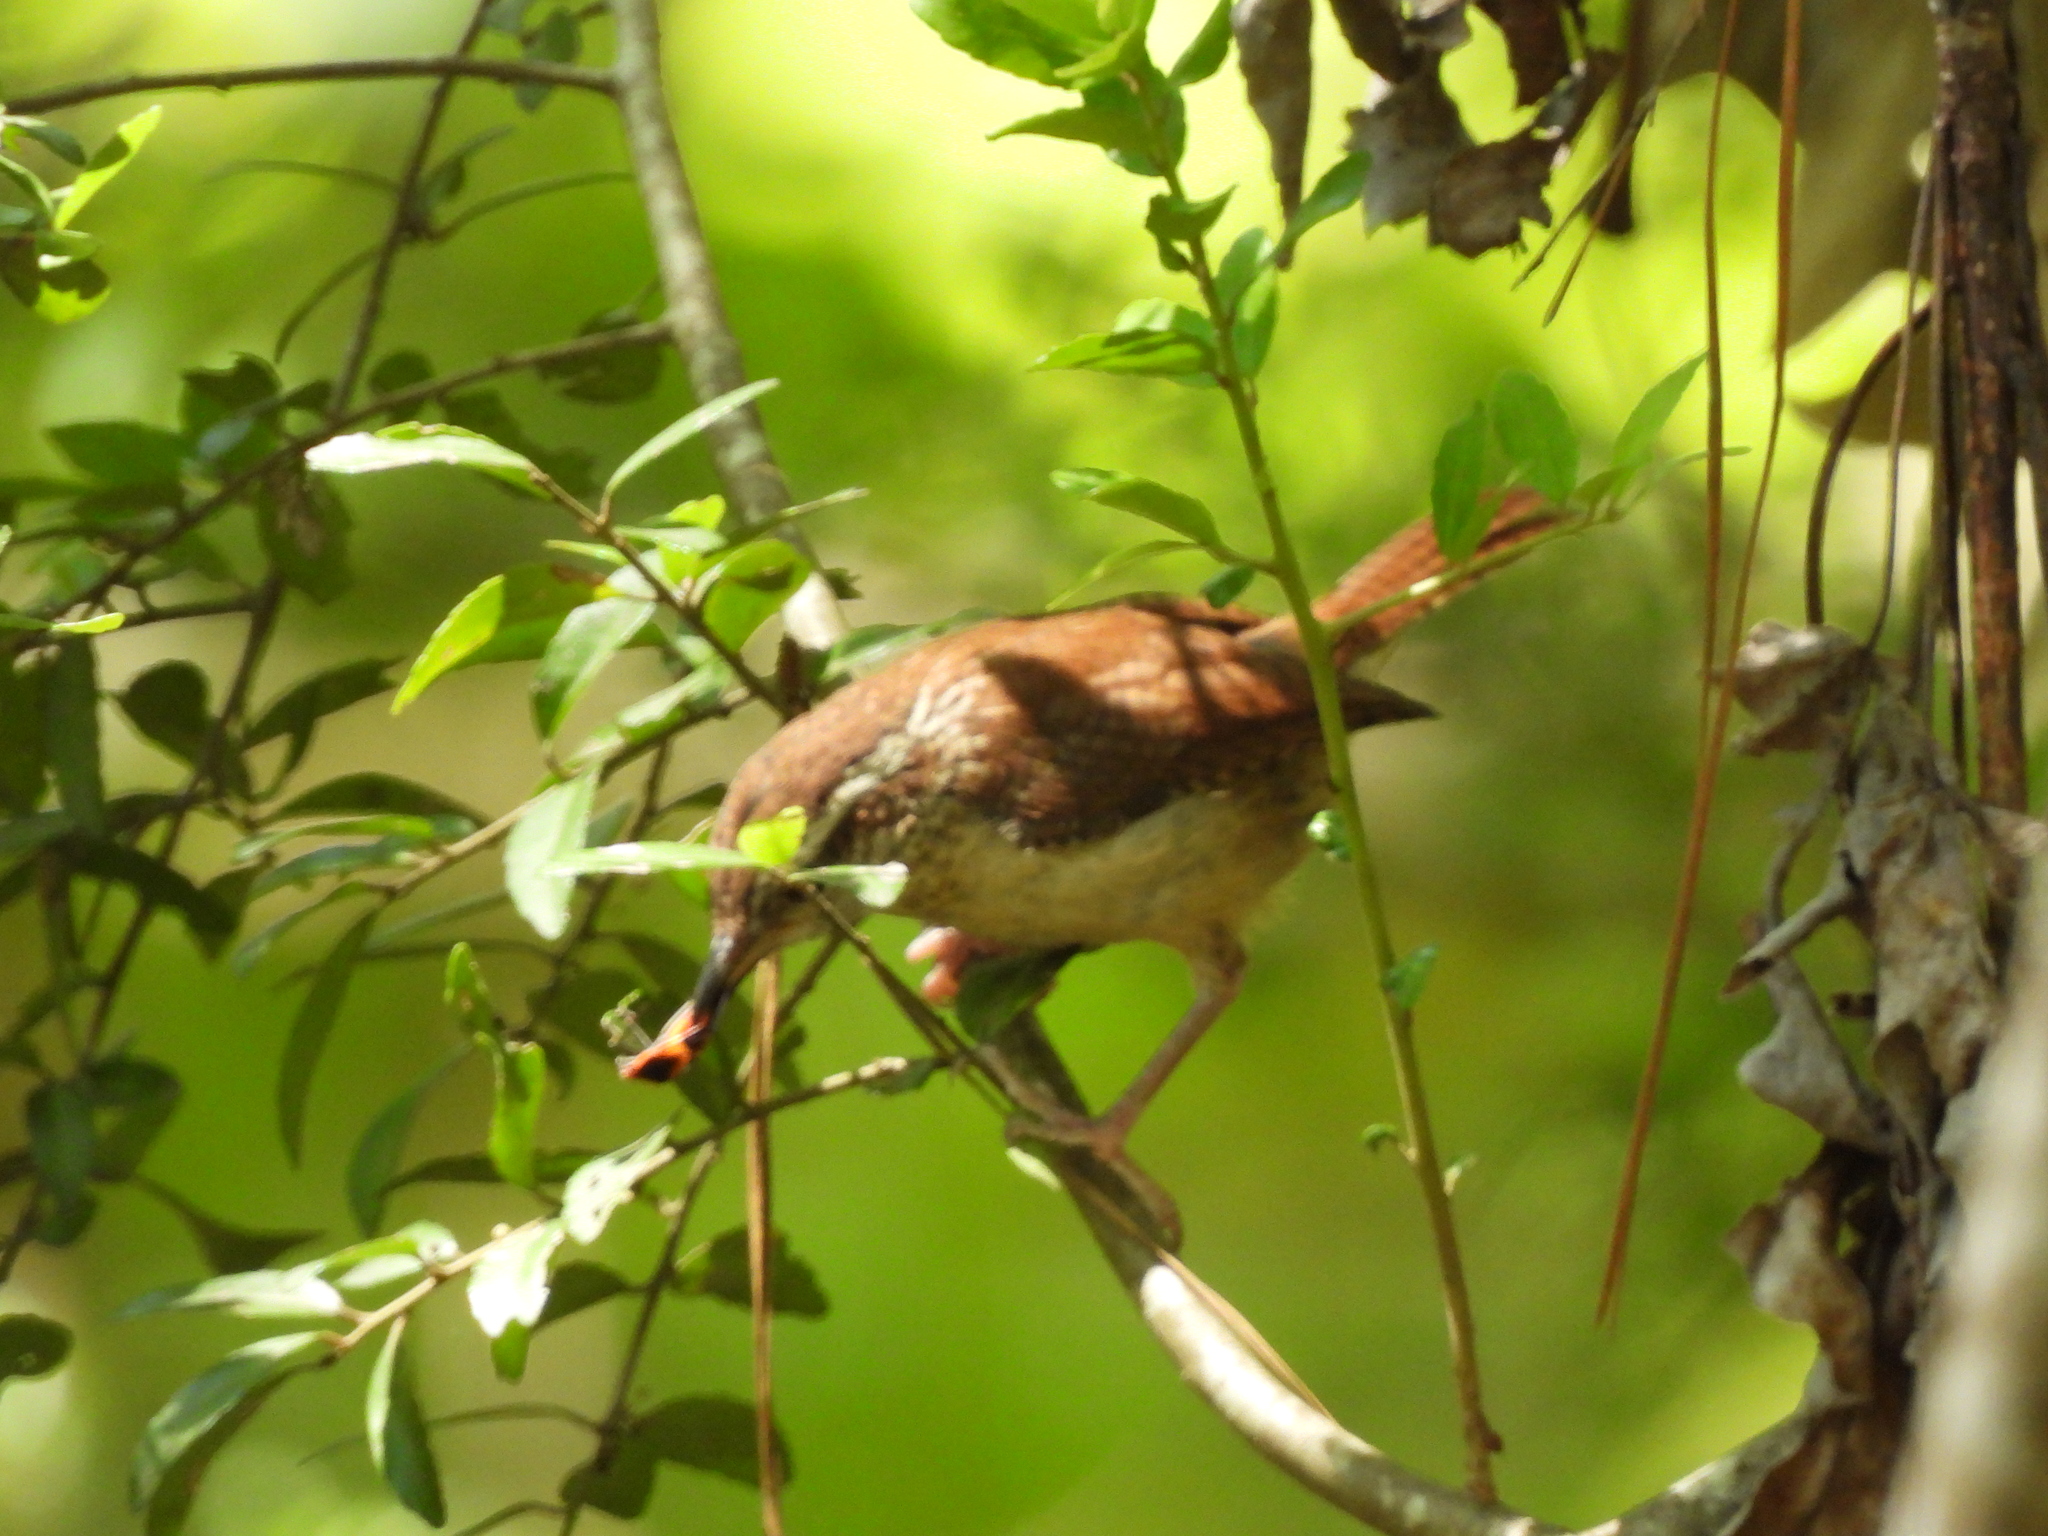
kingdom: Animalia
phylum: Arthropoda
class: Insecta
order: Hemiptera
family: Lygaeidae
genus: Oncopeltus
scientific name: Oncopeltus fasciatus
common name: Large milkweed bug
